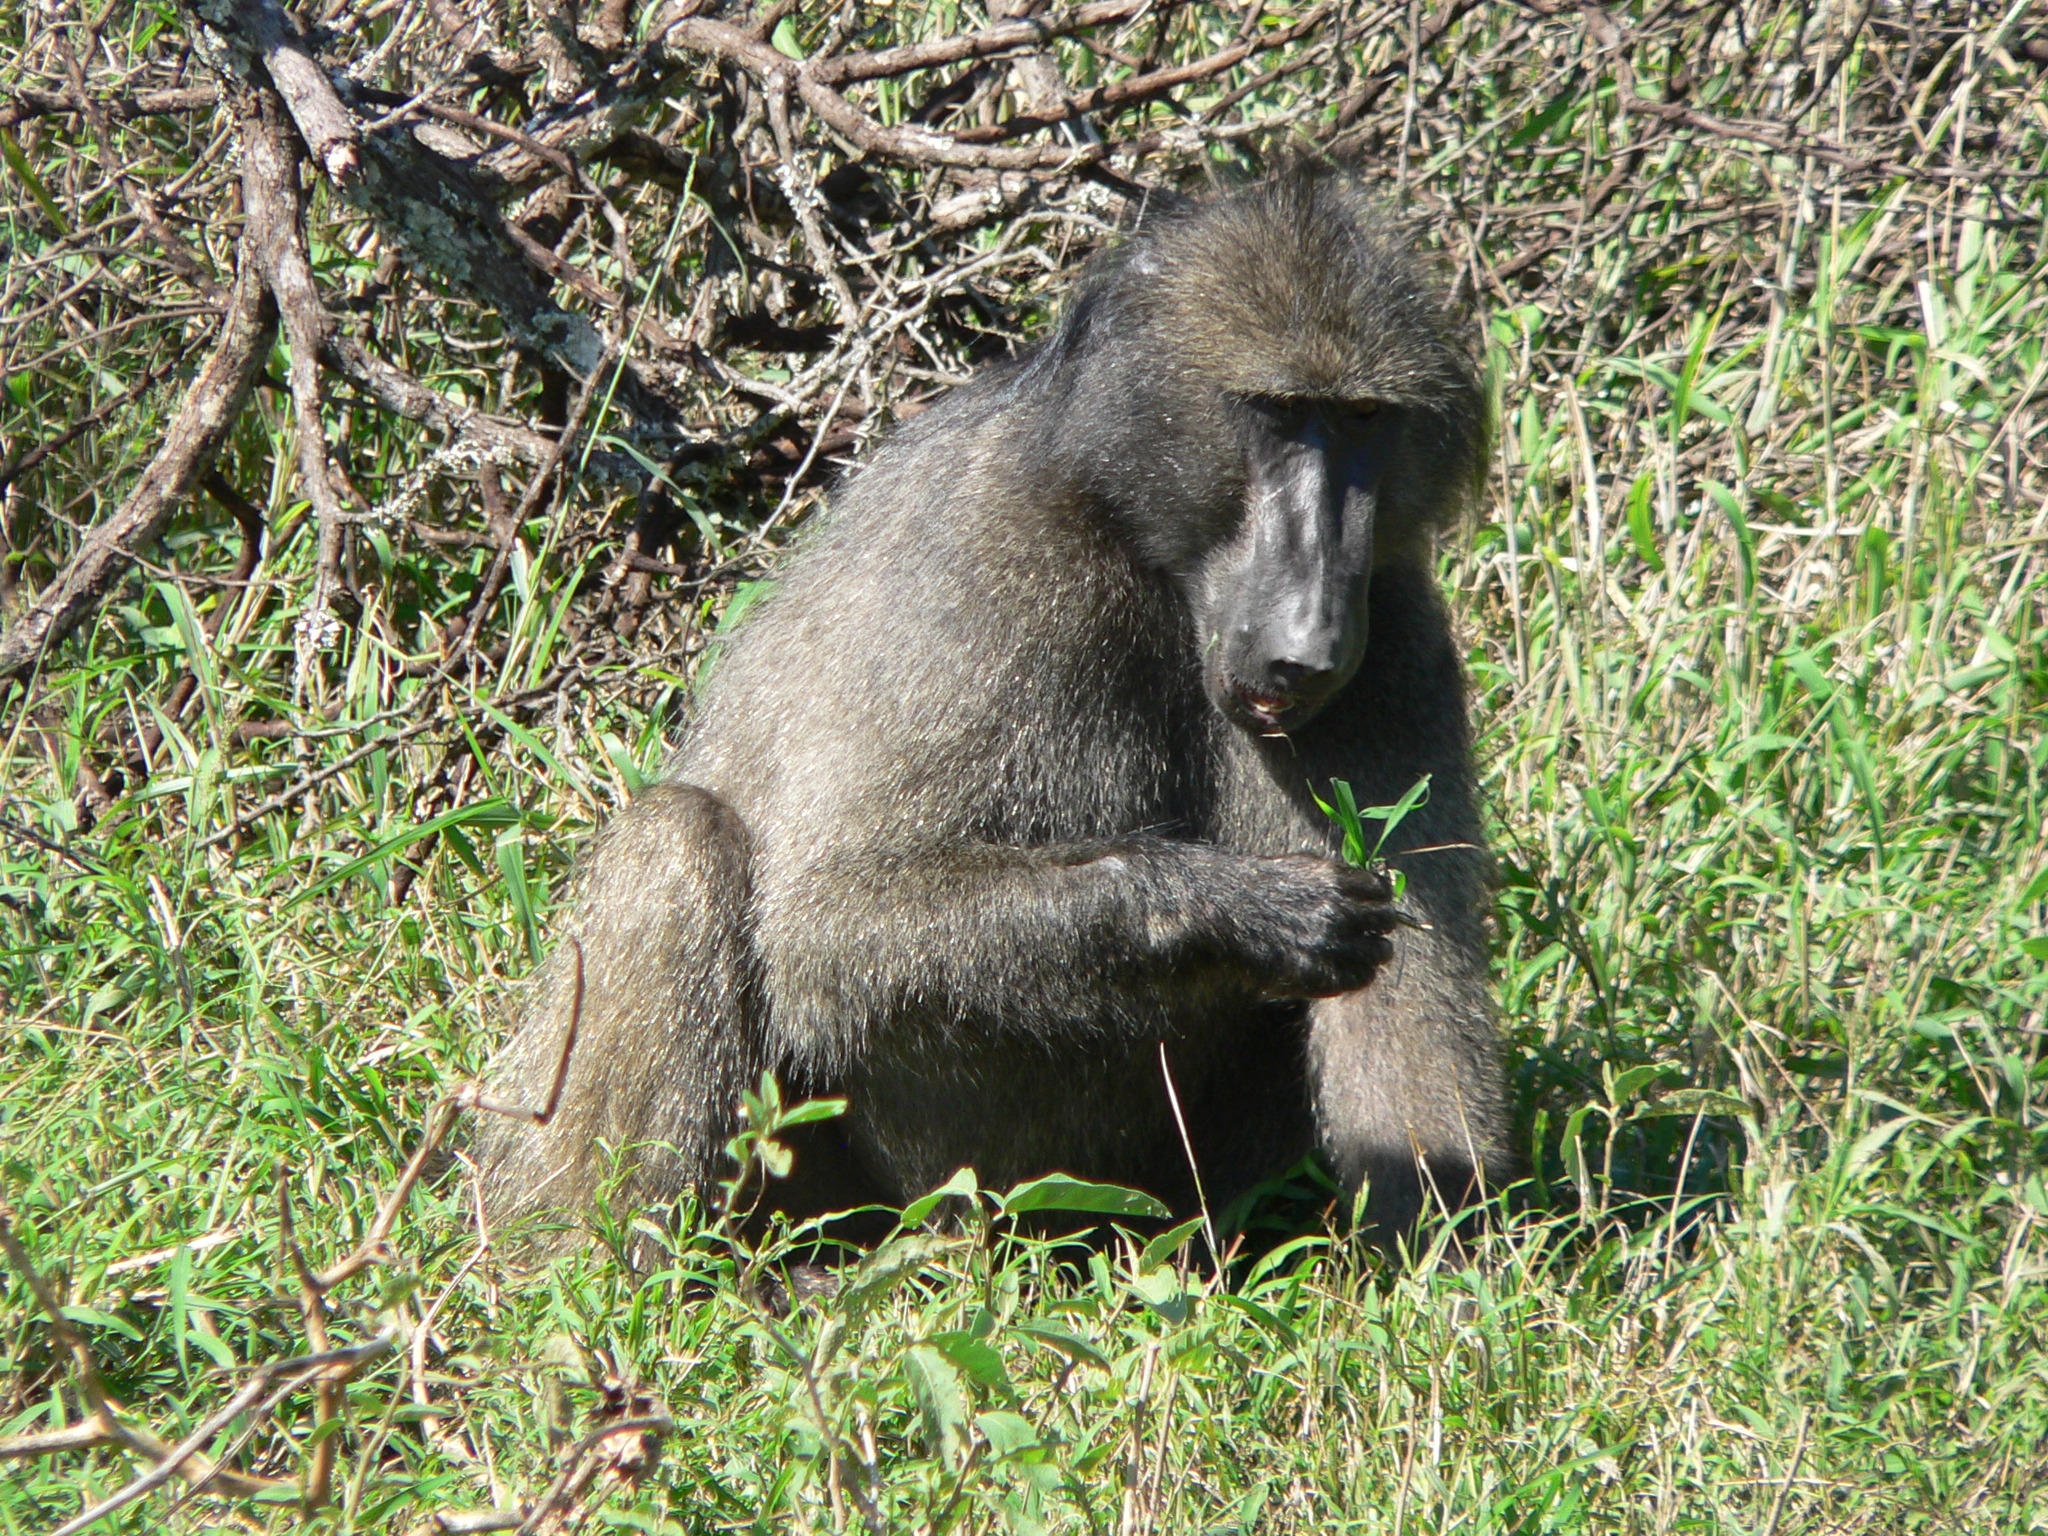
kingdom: Animalia
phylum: Chordata
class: Mammalia
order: Primates
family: Cercopithecidae
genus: Papio
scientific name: Papio ursinus
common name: Chacma baboon
